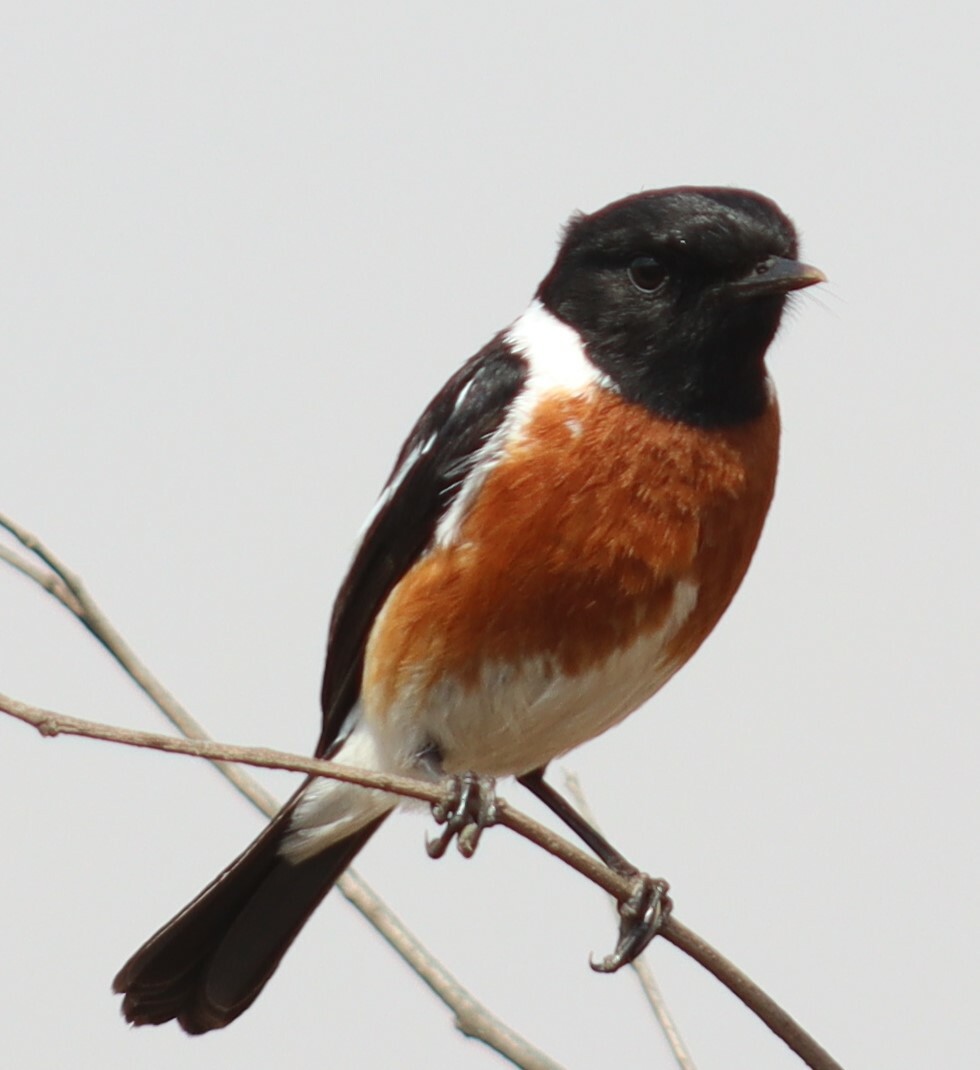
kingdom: Animalia
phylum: Chordata
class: Aves
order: Passeriformes
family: Muscicapidae
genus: Saxicola
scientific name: Saxicola torquatus
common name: African stonechat
